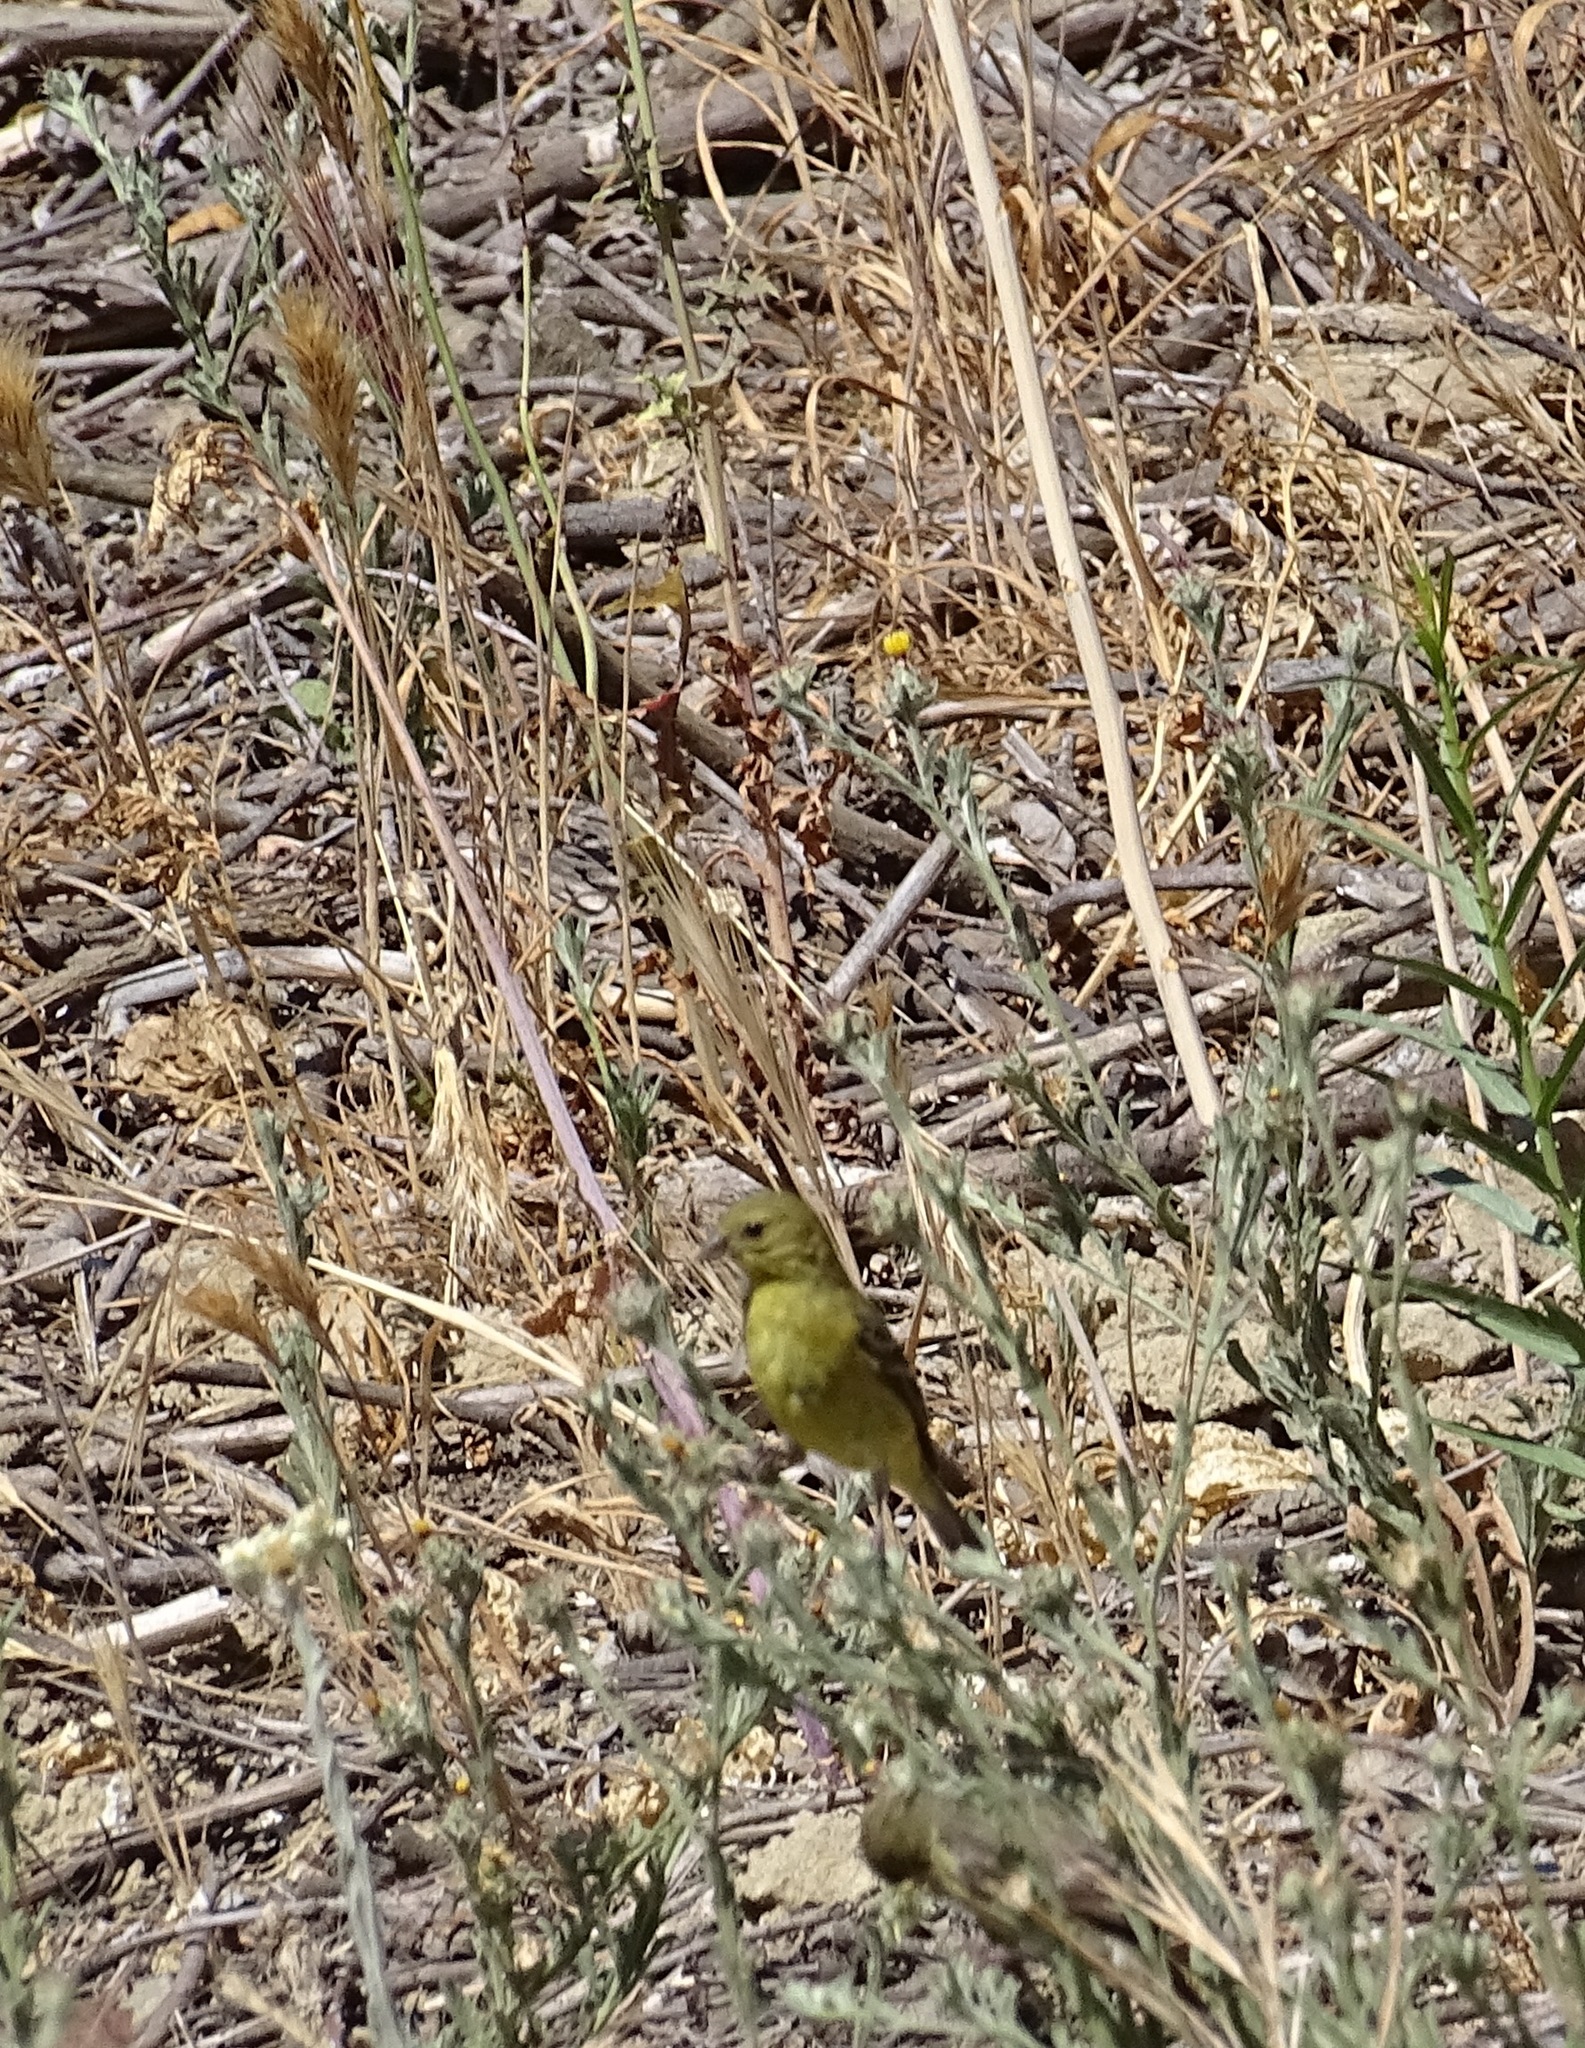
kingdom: Animalia
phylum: Chordata
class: Aves
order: Passeriformes
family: Fringillidae
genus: Spinus
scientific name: Spinus psaltria
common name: Lesser goldfinch
